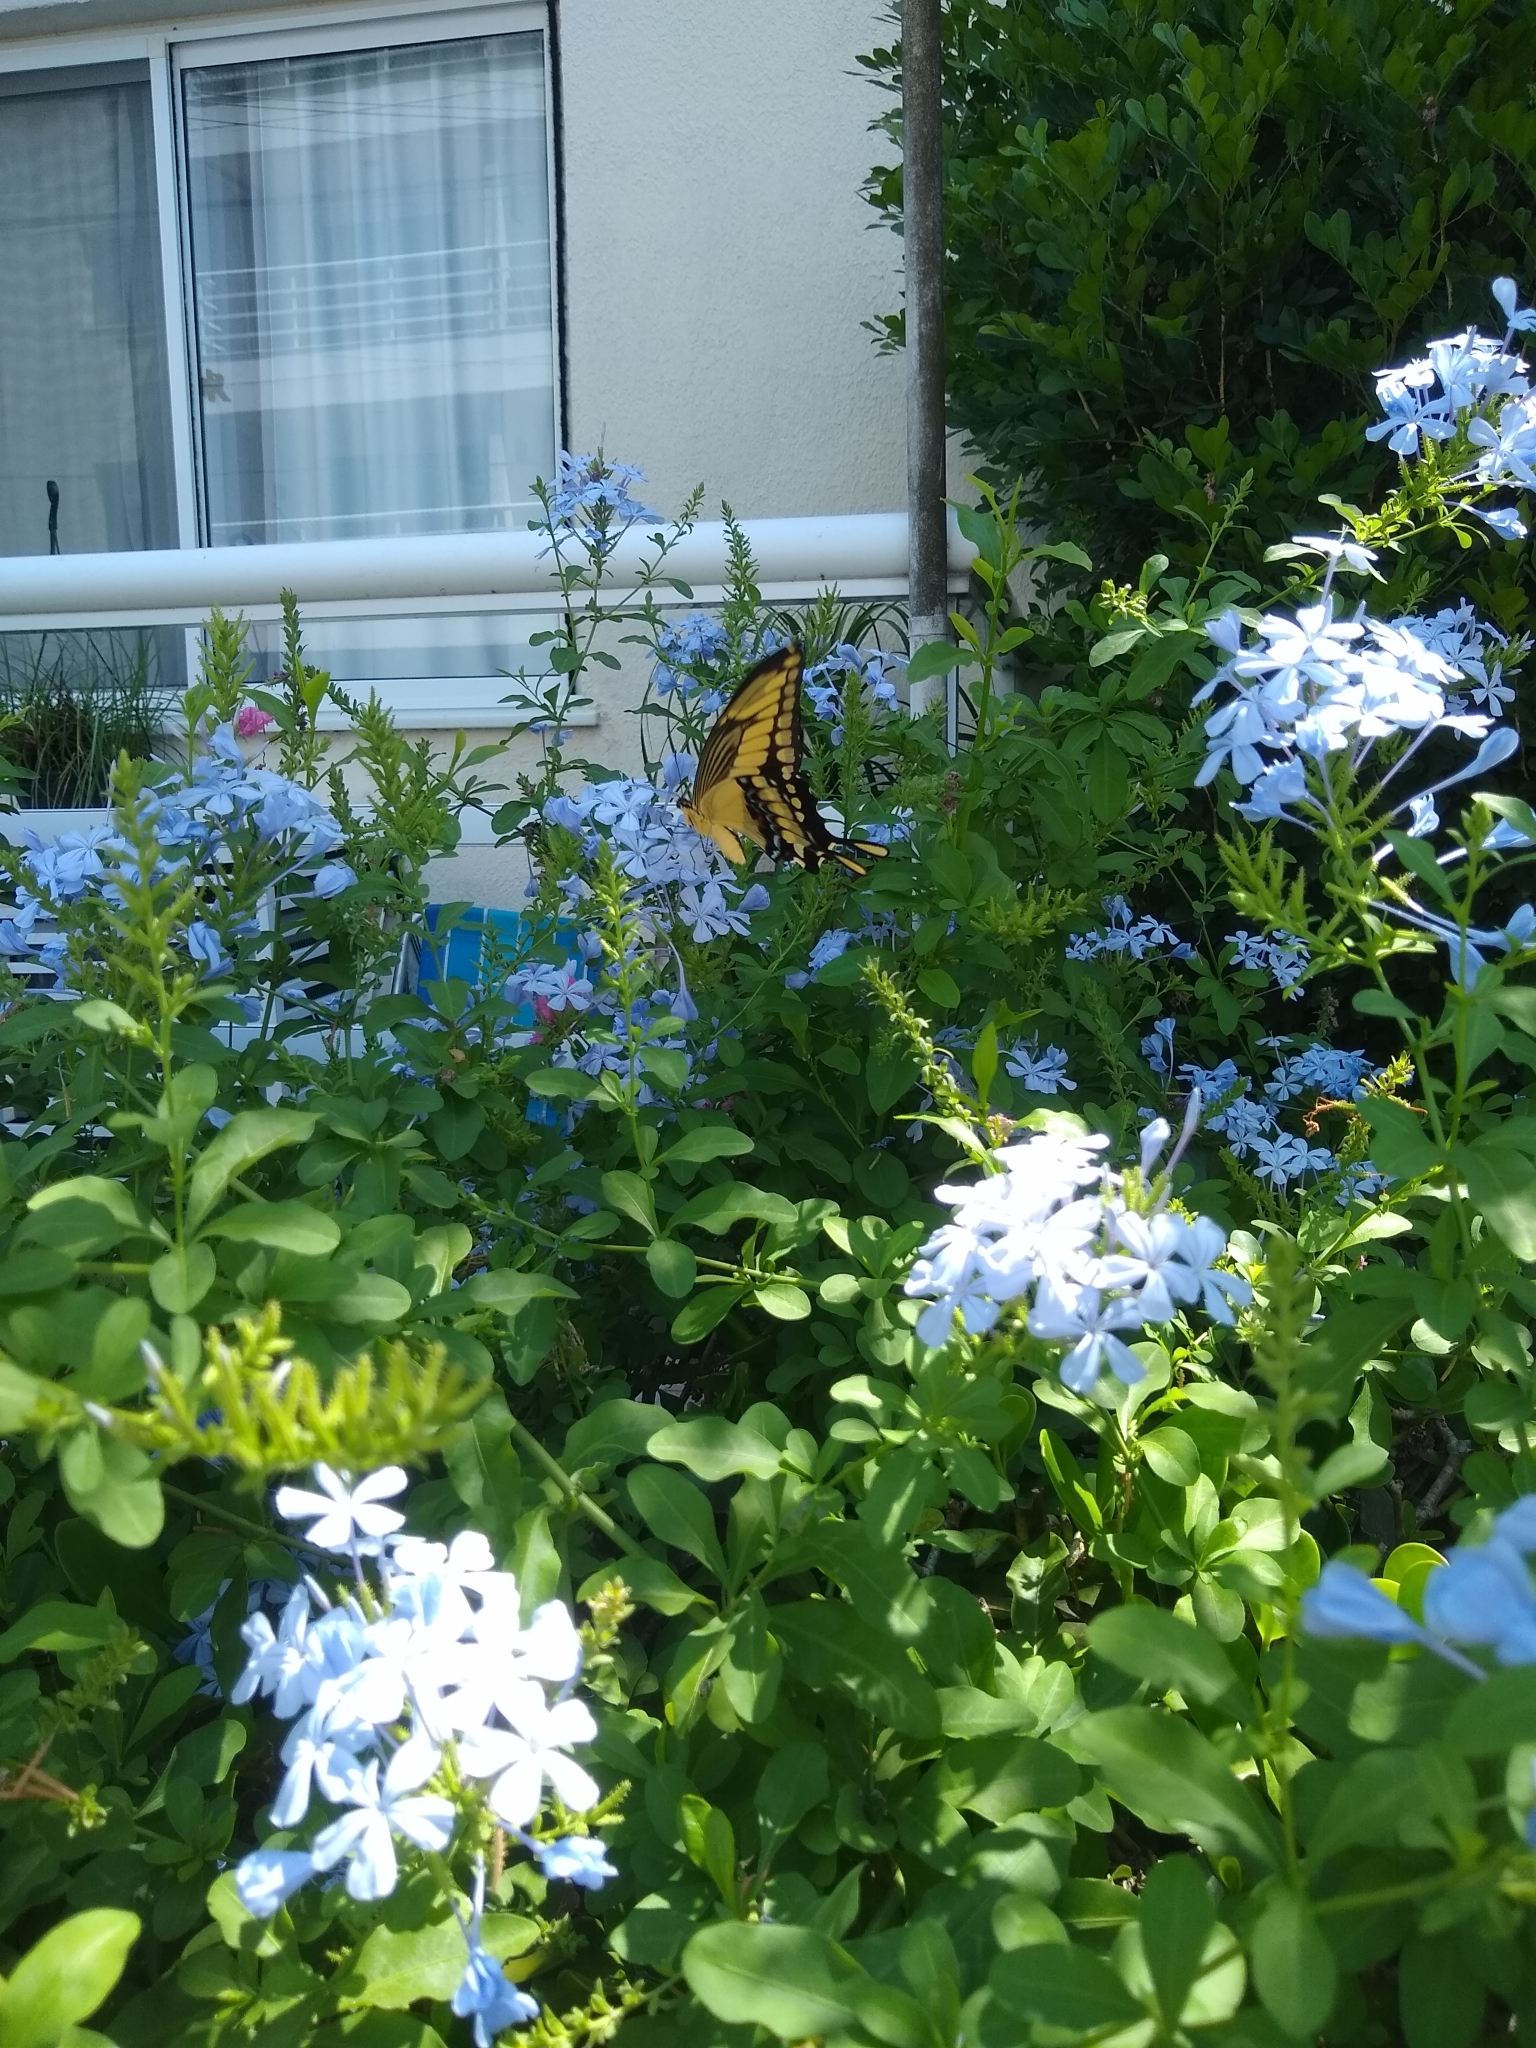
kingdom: Animalia
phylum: Arthropoda
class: Insecta
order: Lepidoptera
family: Papilionidae
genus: Papilio
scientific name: Papilio thoas
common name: King swallowtail
